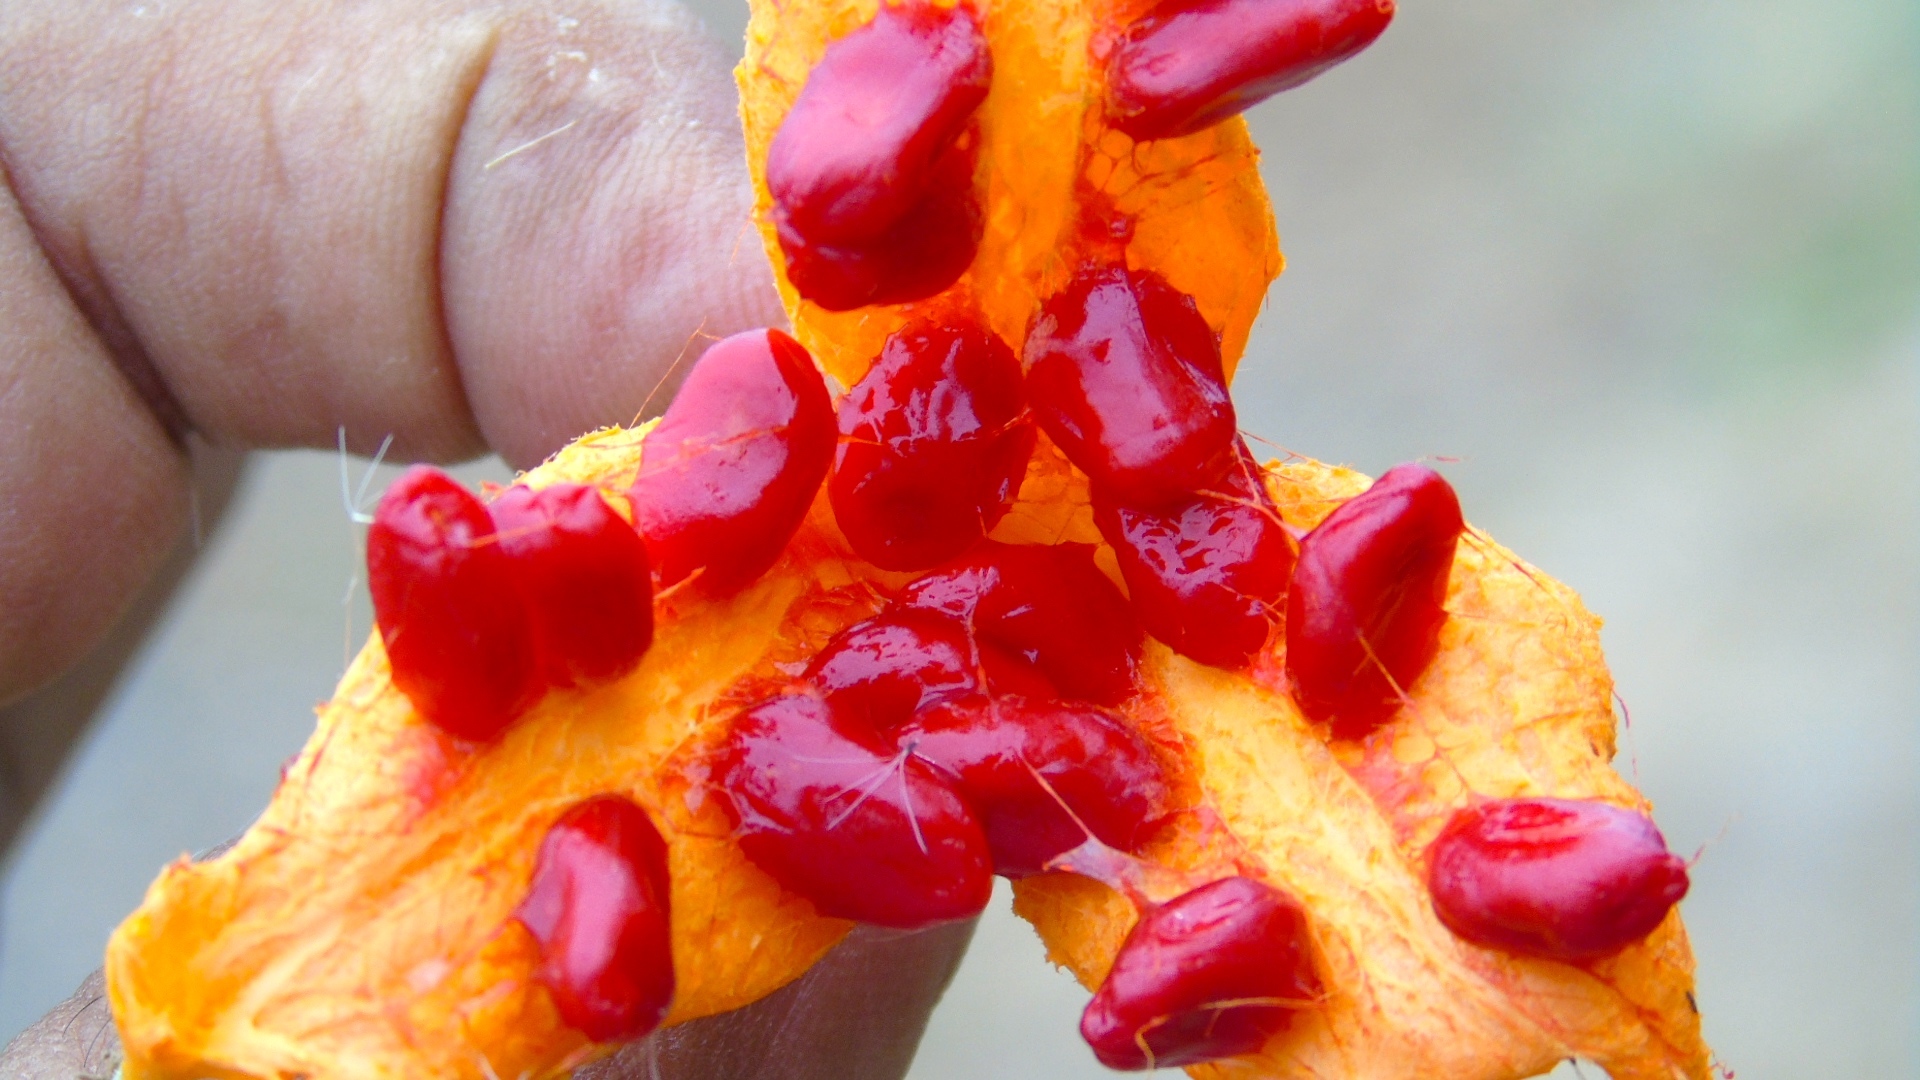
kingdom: Plantae
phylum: Tracheophyta
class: Magnoliopsida
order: Cucurbitales
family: Cucurbitaceae
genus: Momordica
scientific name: Momordica charantia
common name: Balsampear
